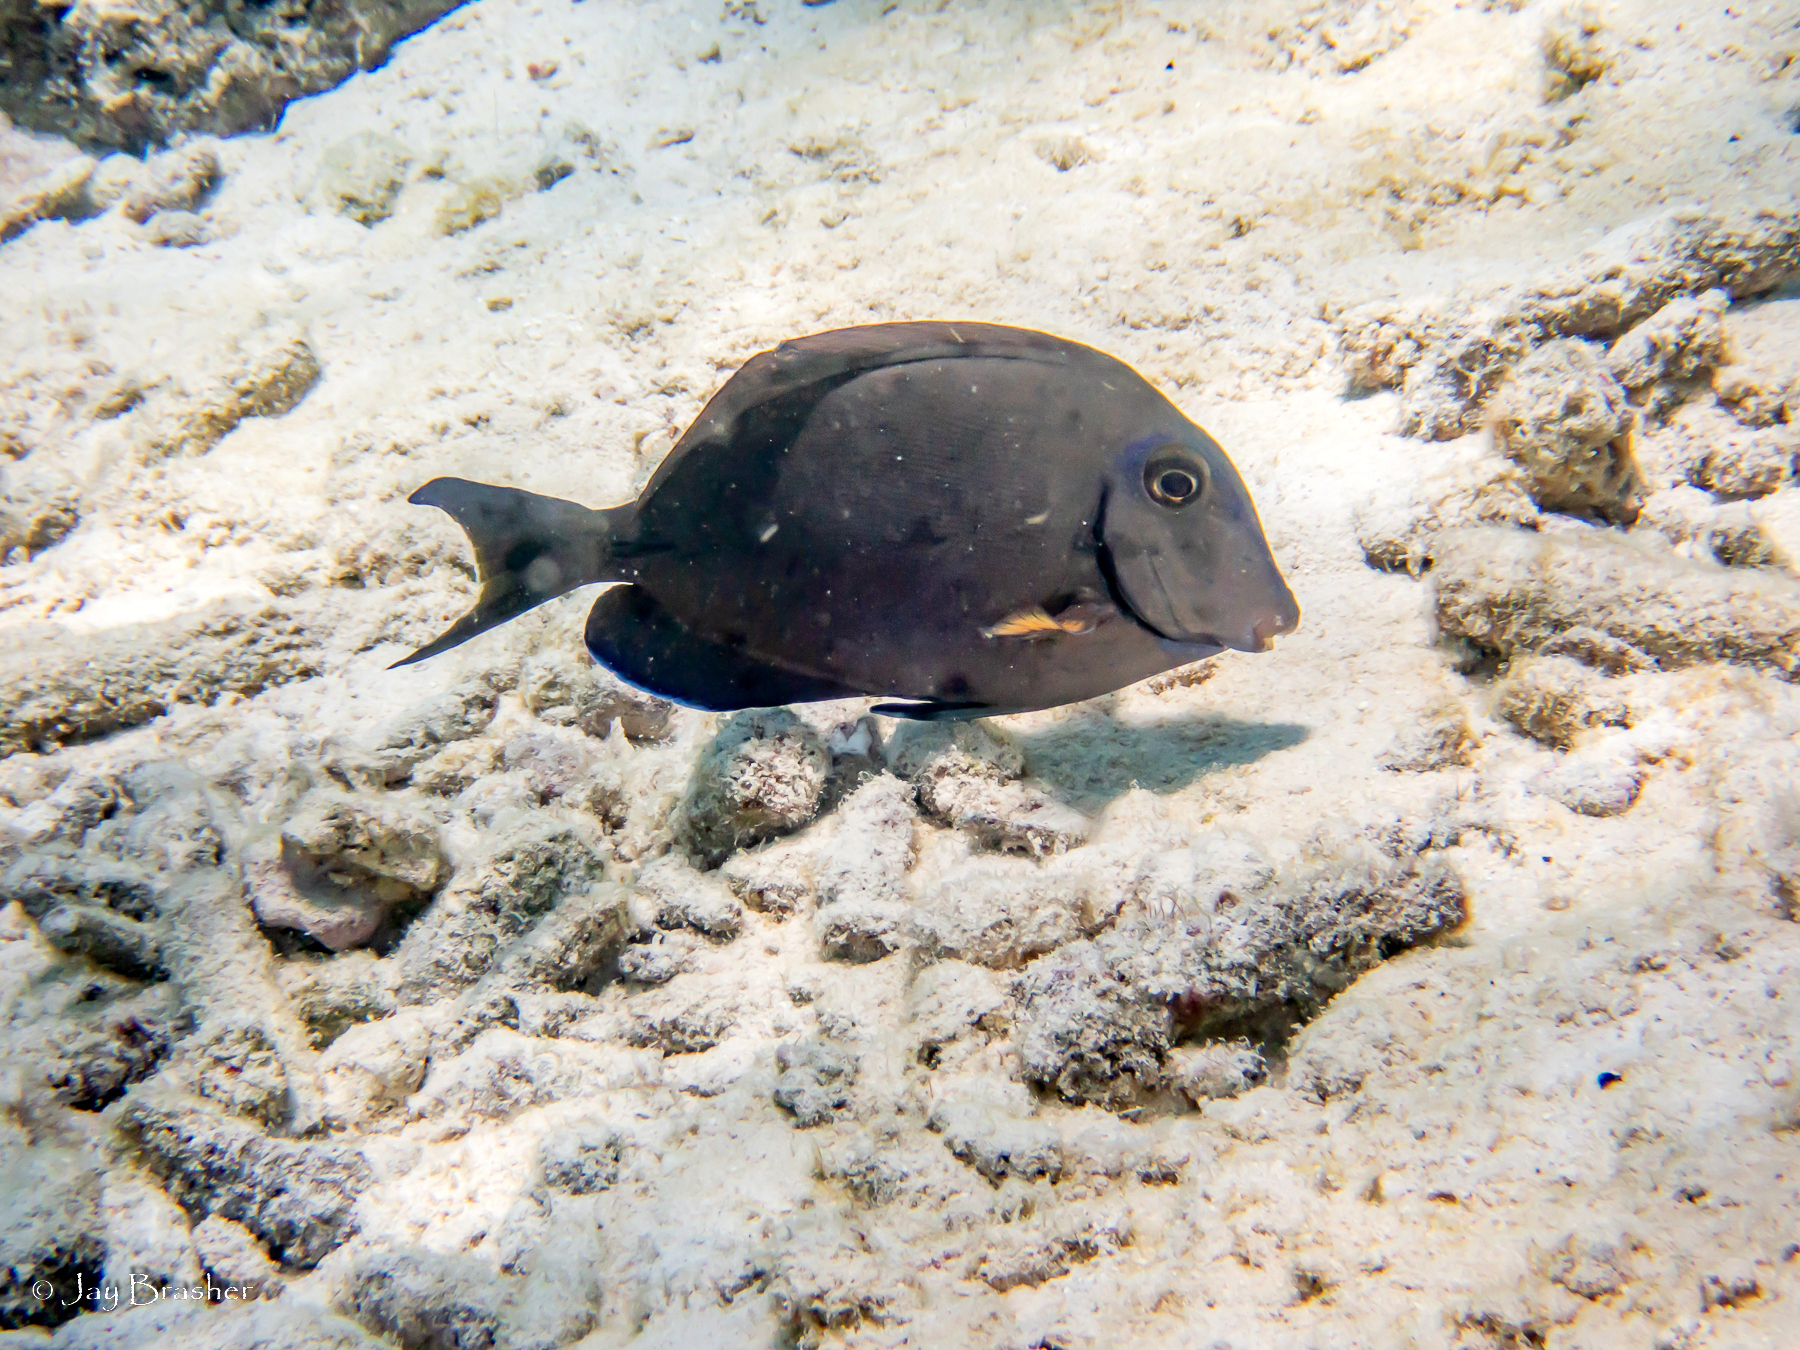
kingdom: Animalia
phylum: Chordata
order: Perciformes
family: Acanthuridae
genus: Acanthurus
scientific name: Acanthurus bahianus
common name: Ocean surgeon
